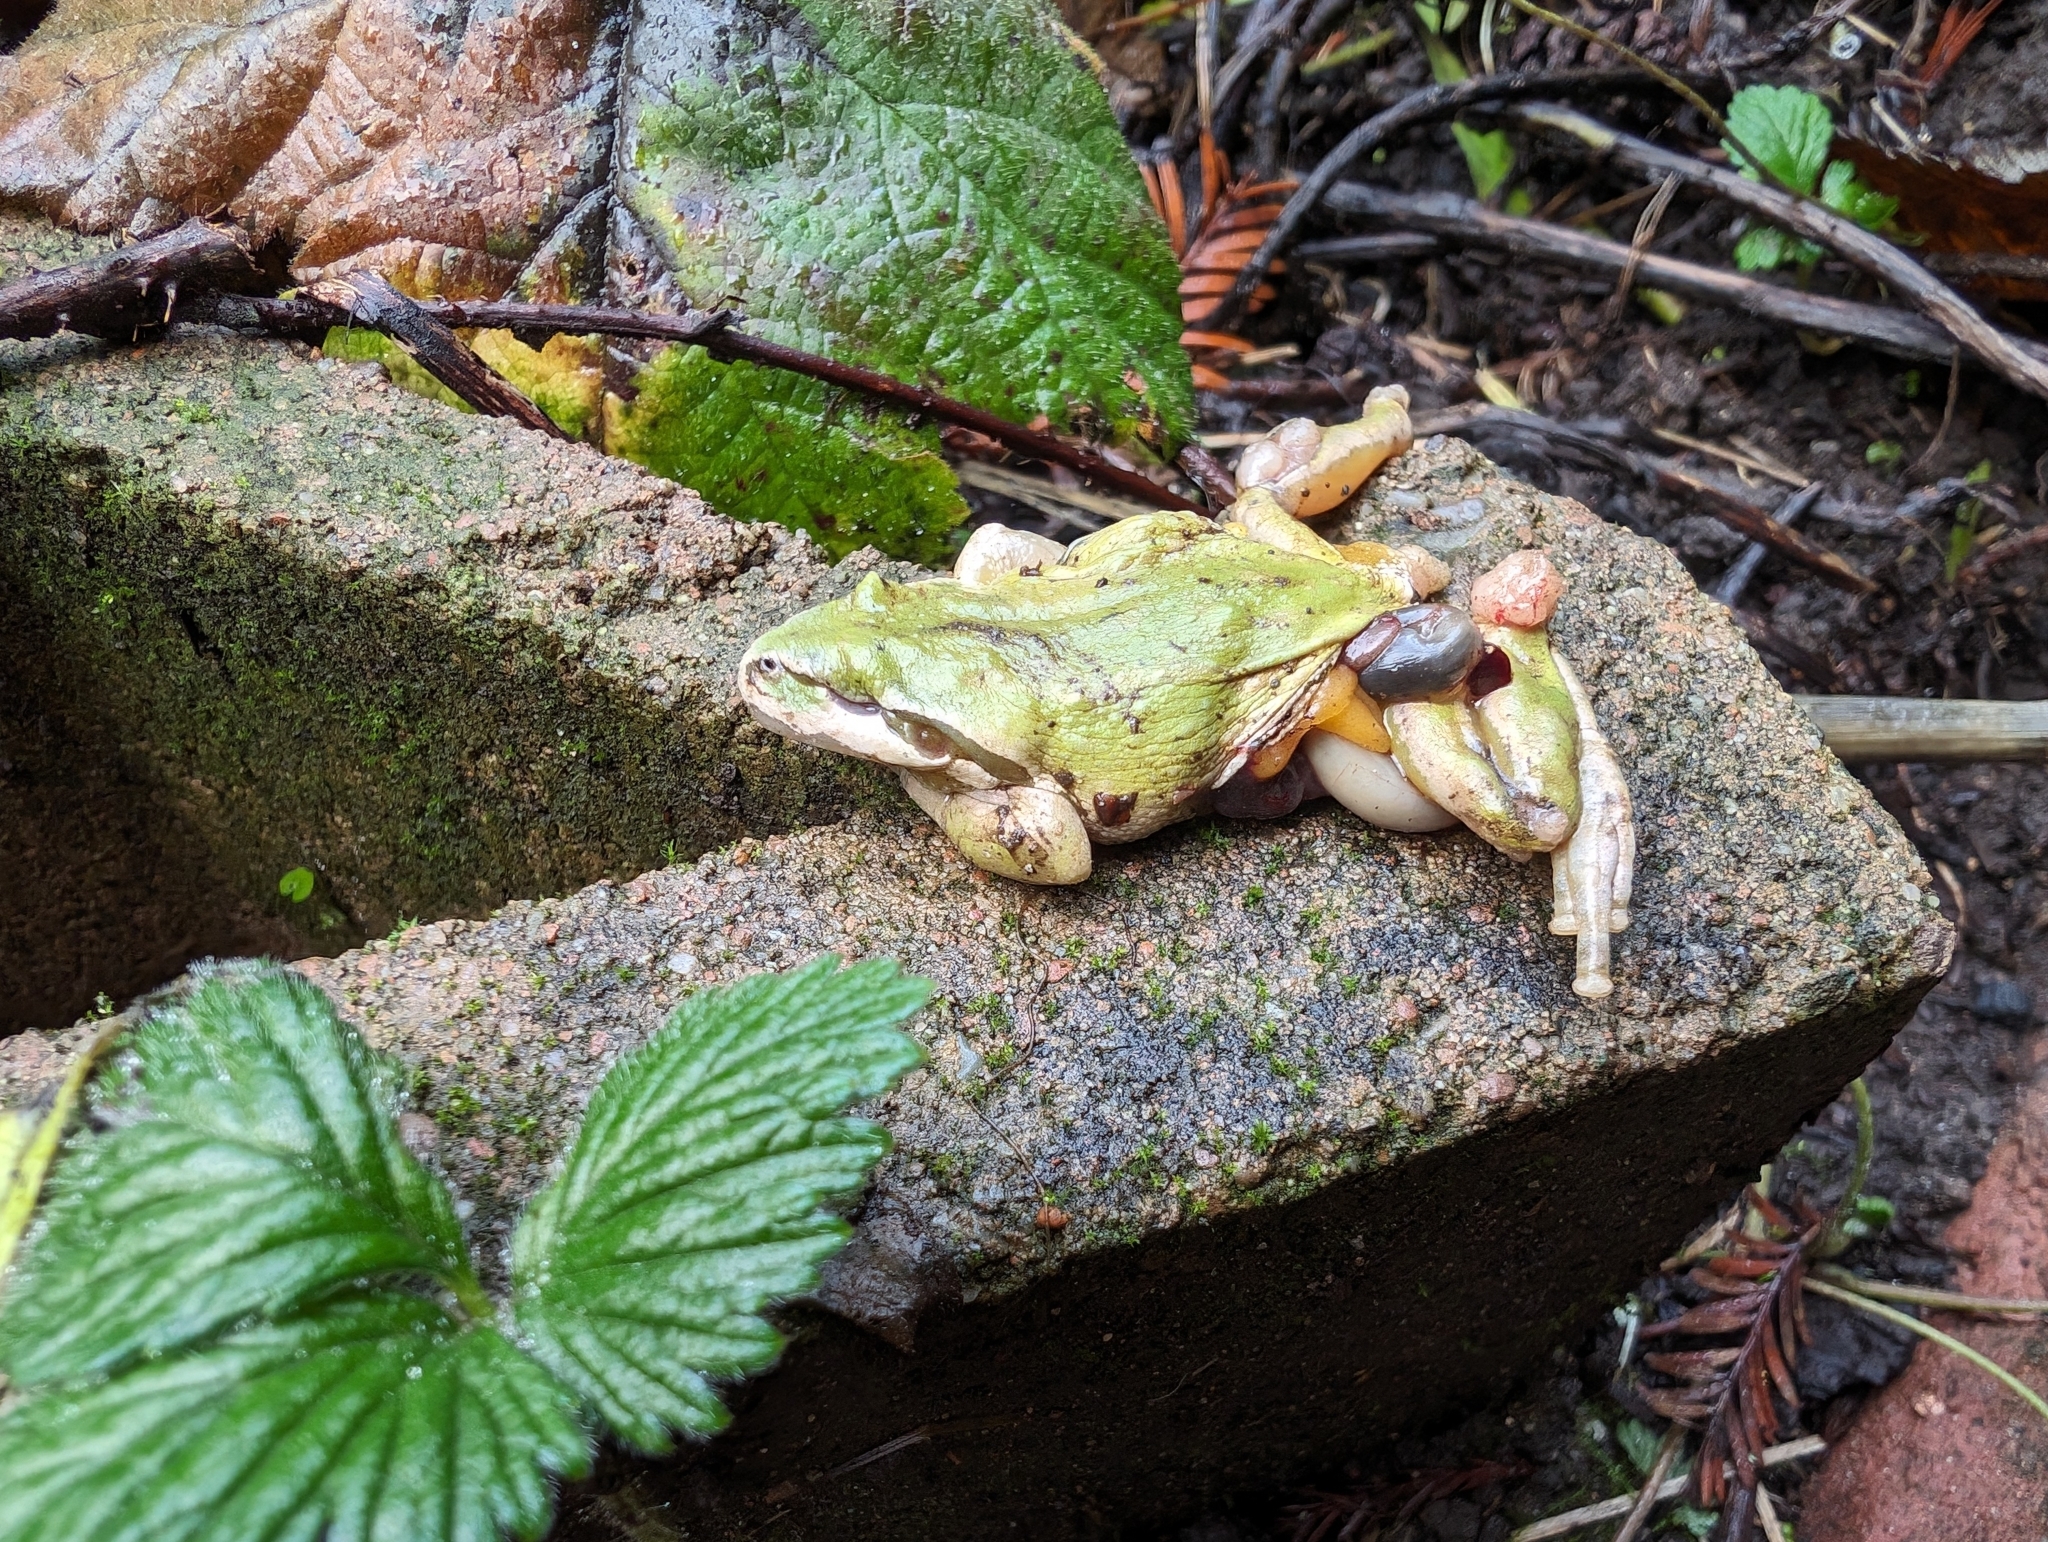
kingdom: Animalia
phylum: Chordata
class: Amphibia
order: Anura
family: Hylidae
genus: Pseudacris
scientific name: Pseudacris regilla
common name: Pacific chorus frog
